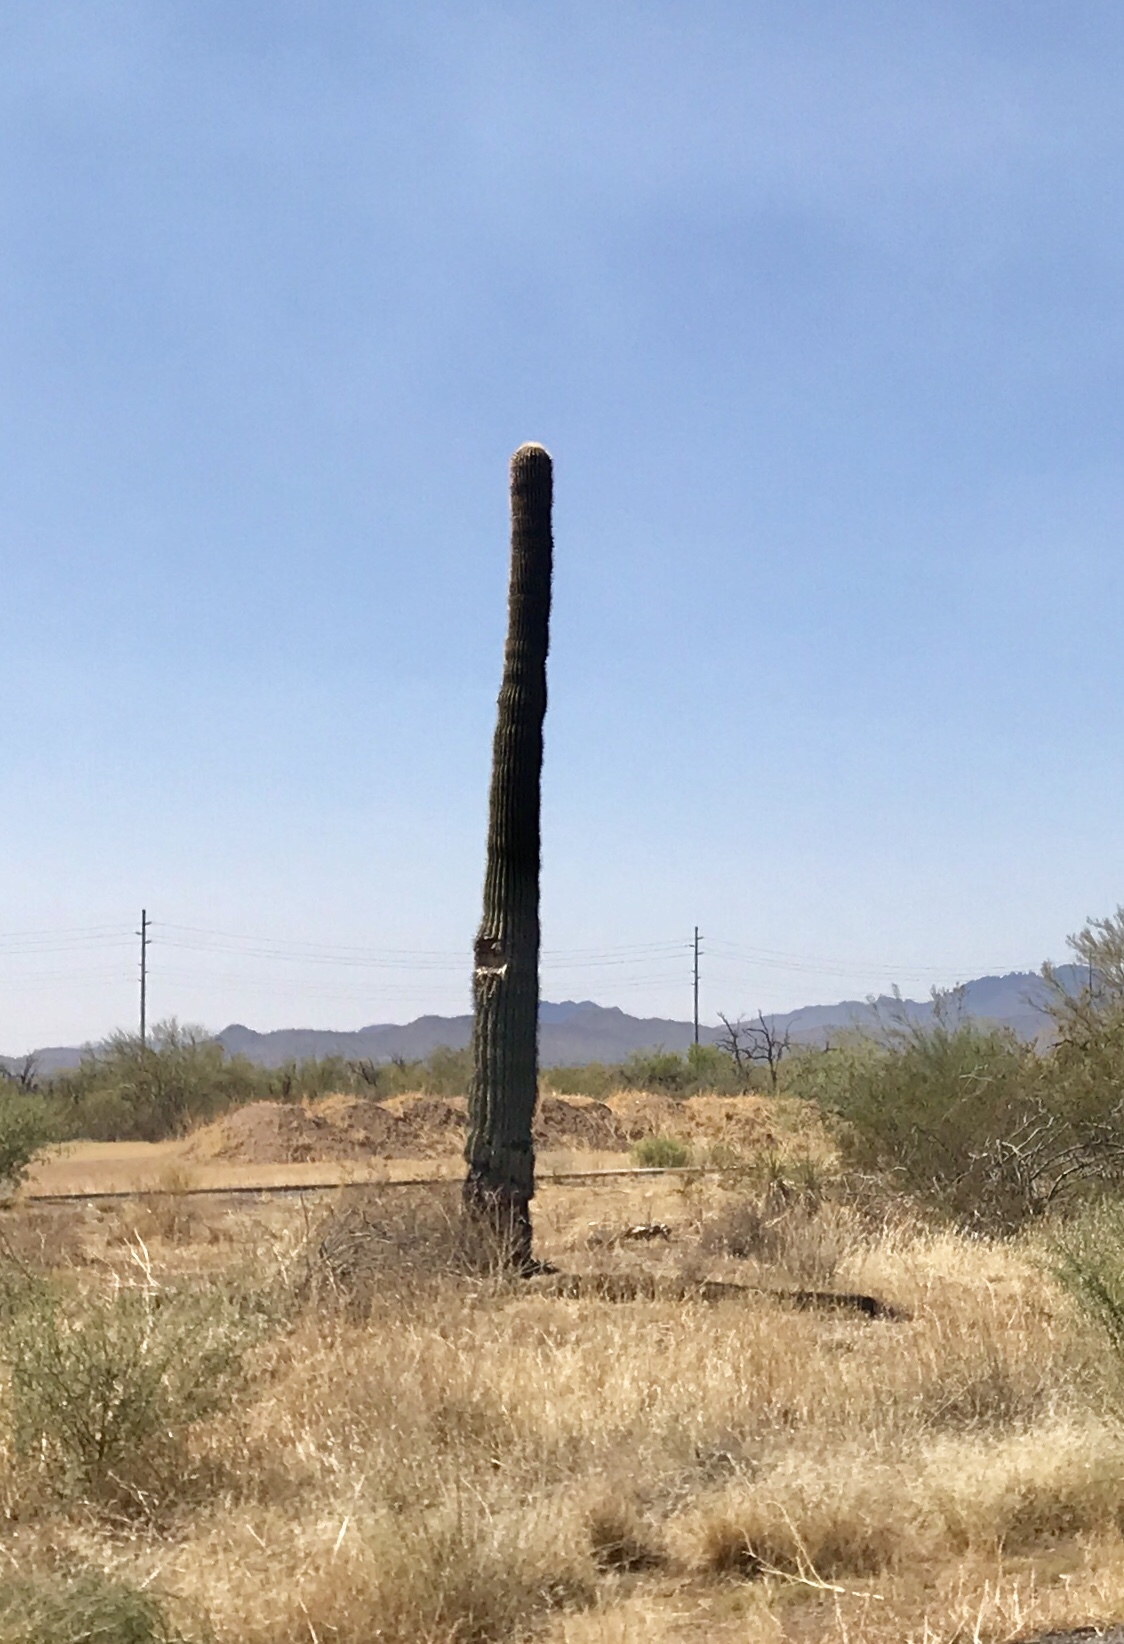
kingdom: Plantae
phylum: Tracheophyta
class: Magnoliopsida
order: Caryophyllales
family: Cactaceae
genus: Carnegiea
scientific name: Carnegiea gigantea
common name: Saguaro
